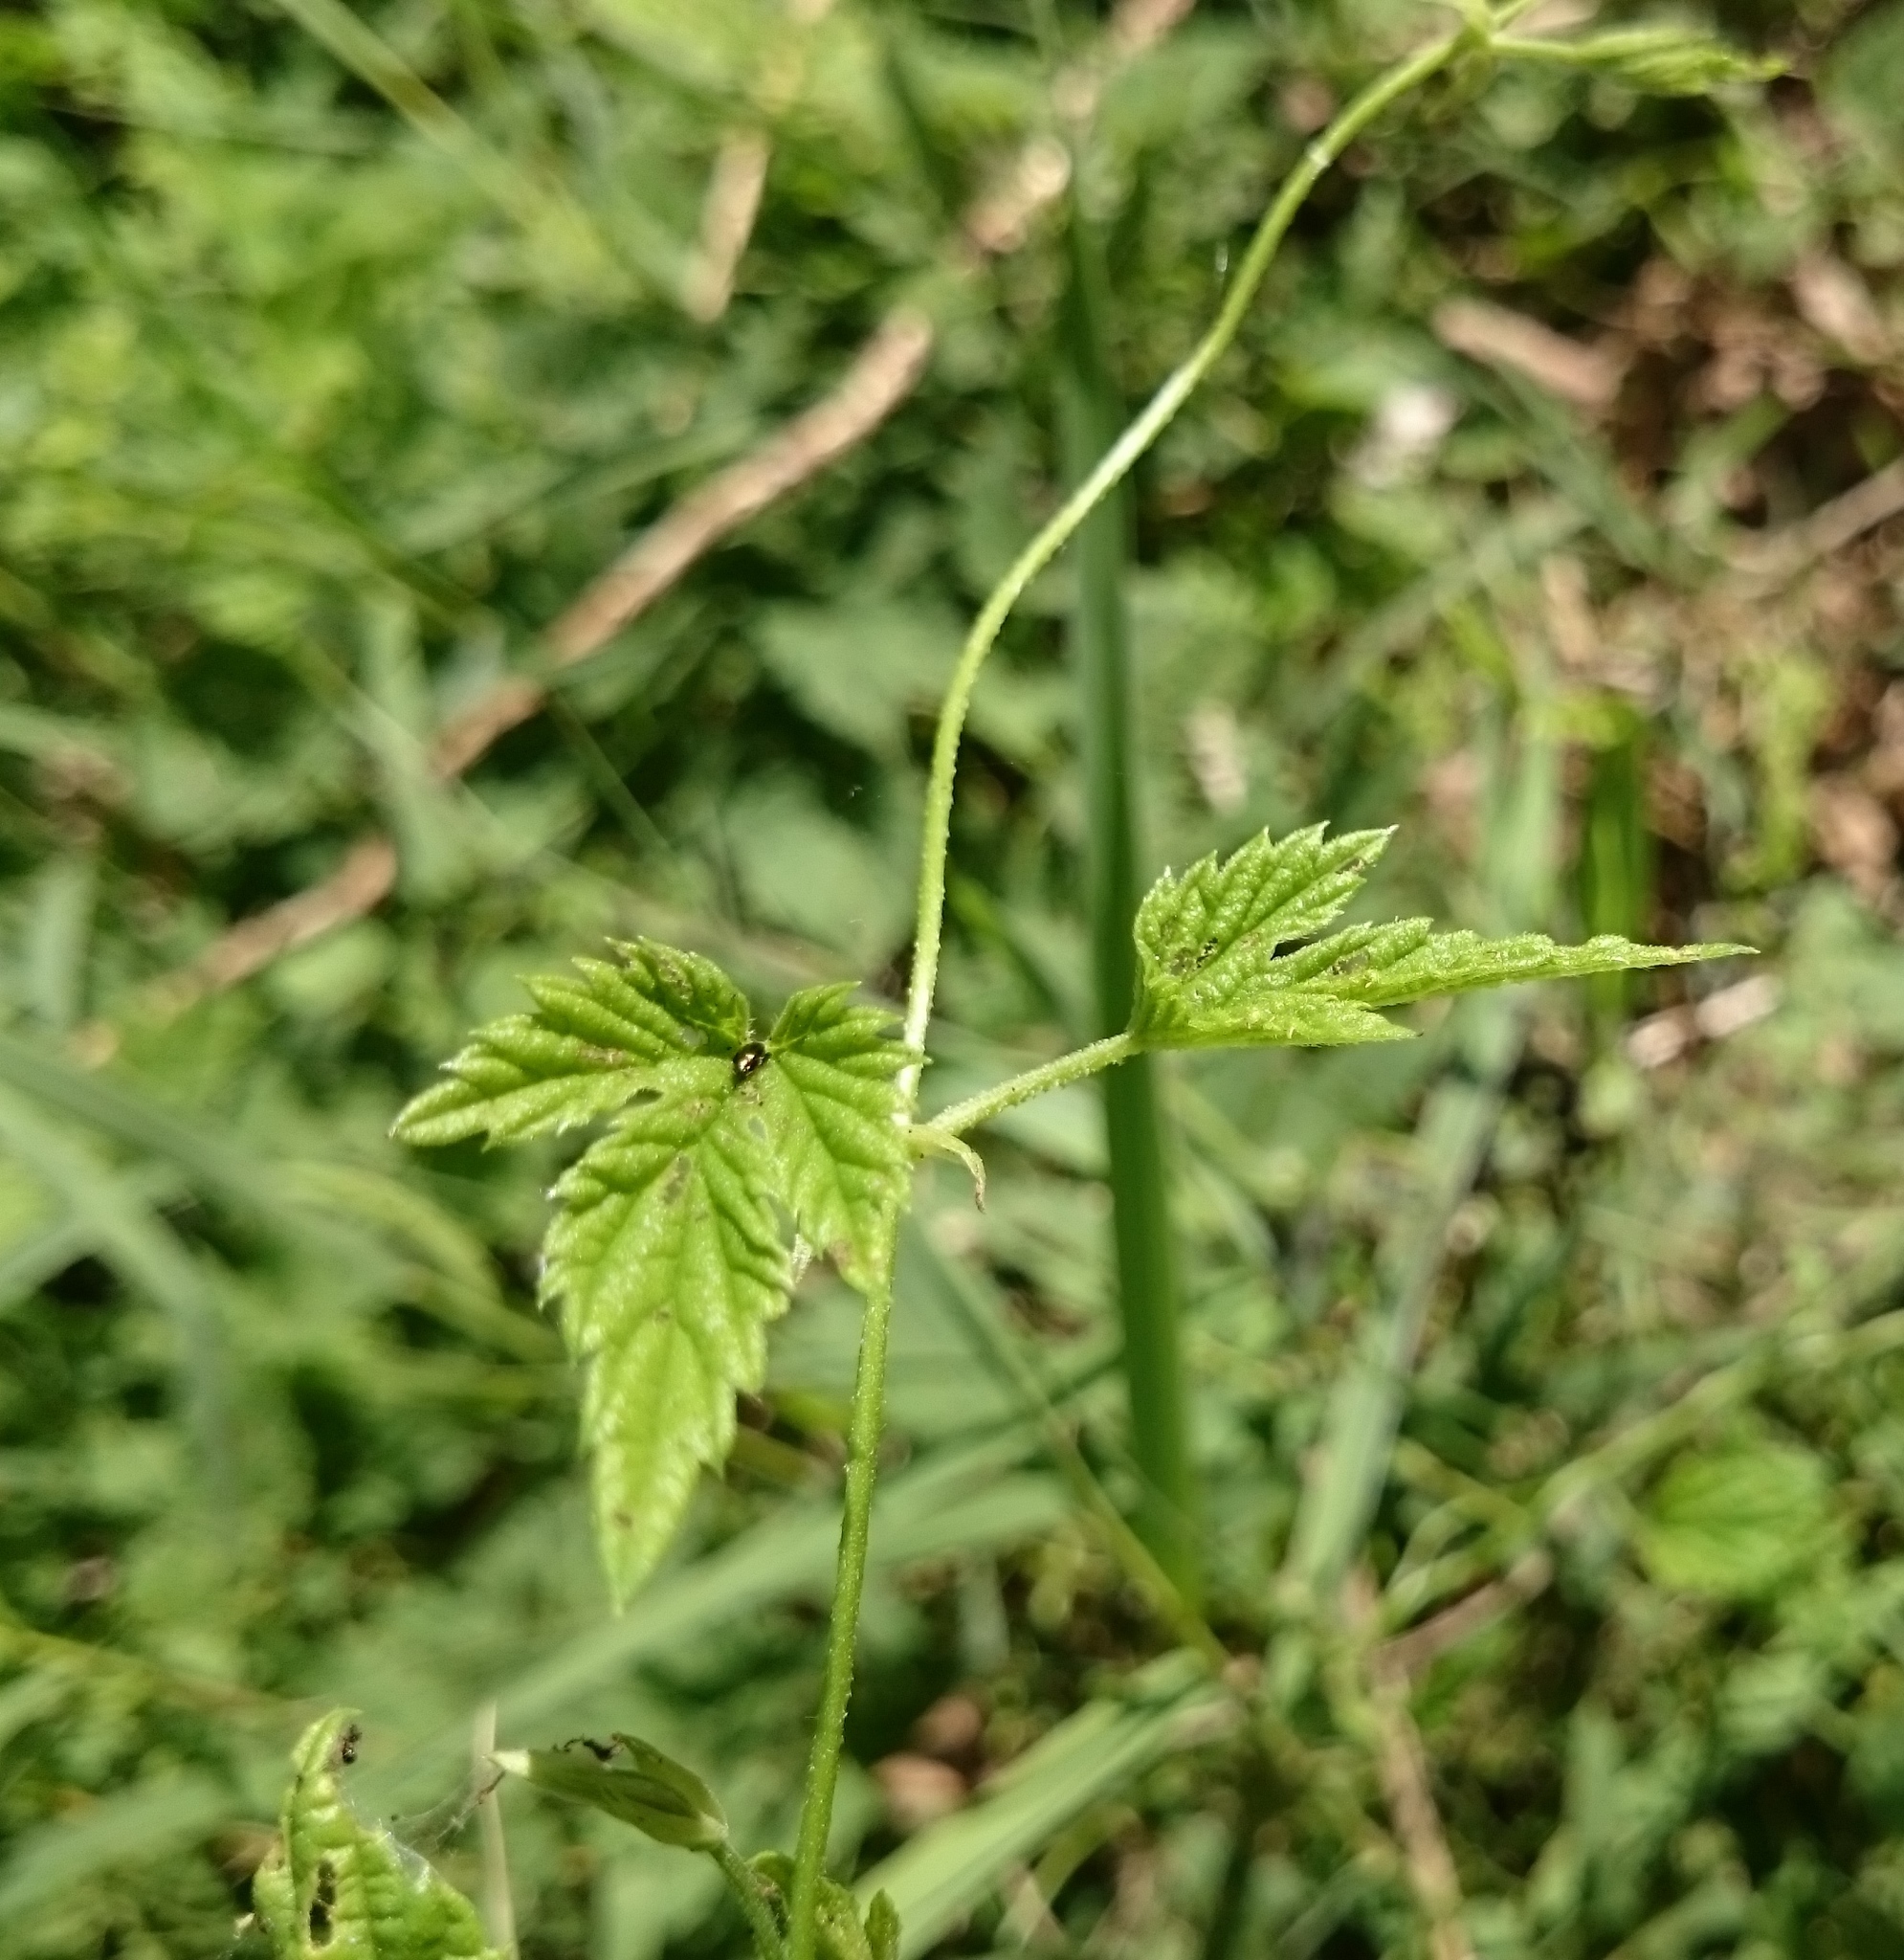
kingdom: Plantae
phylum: Tracheophyta
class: Magnoliopsida
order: Rosales
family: Cannabaceae
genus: Humulus
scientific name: Humulus lupulus
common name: Hop
